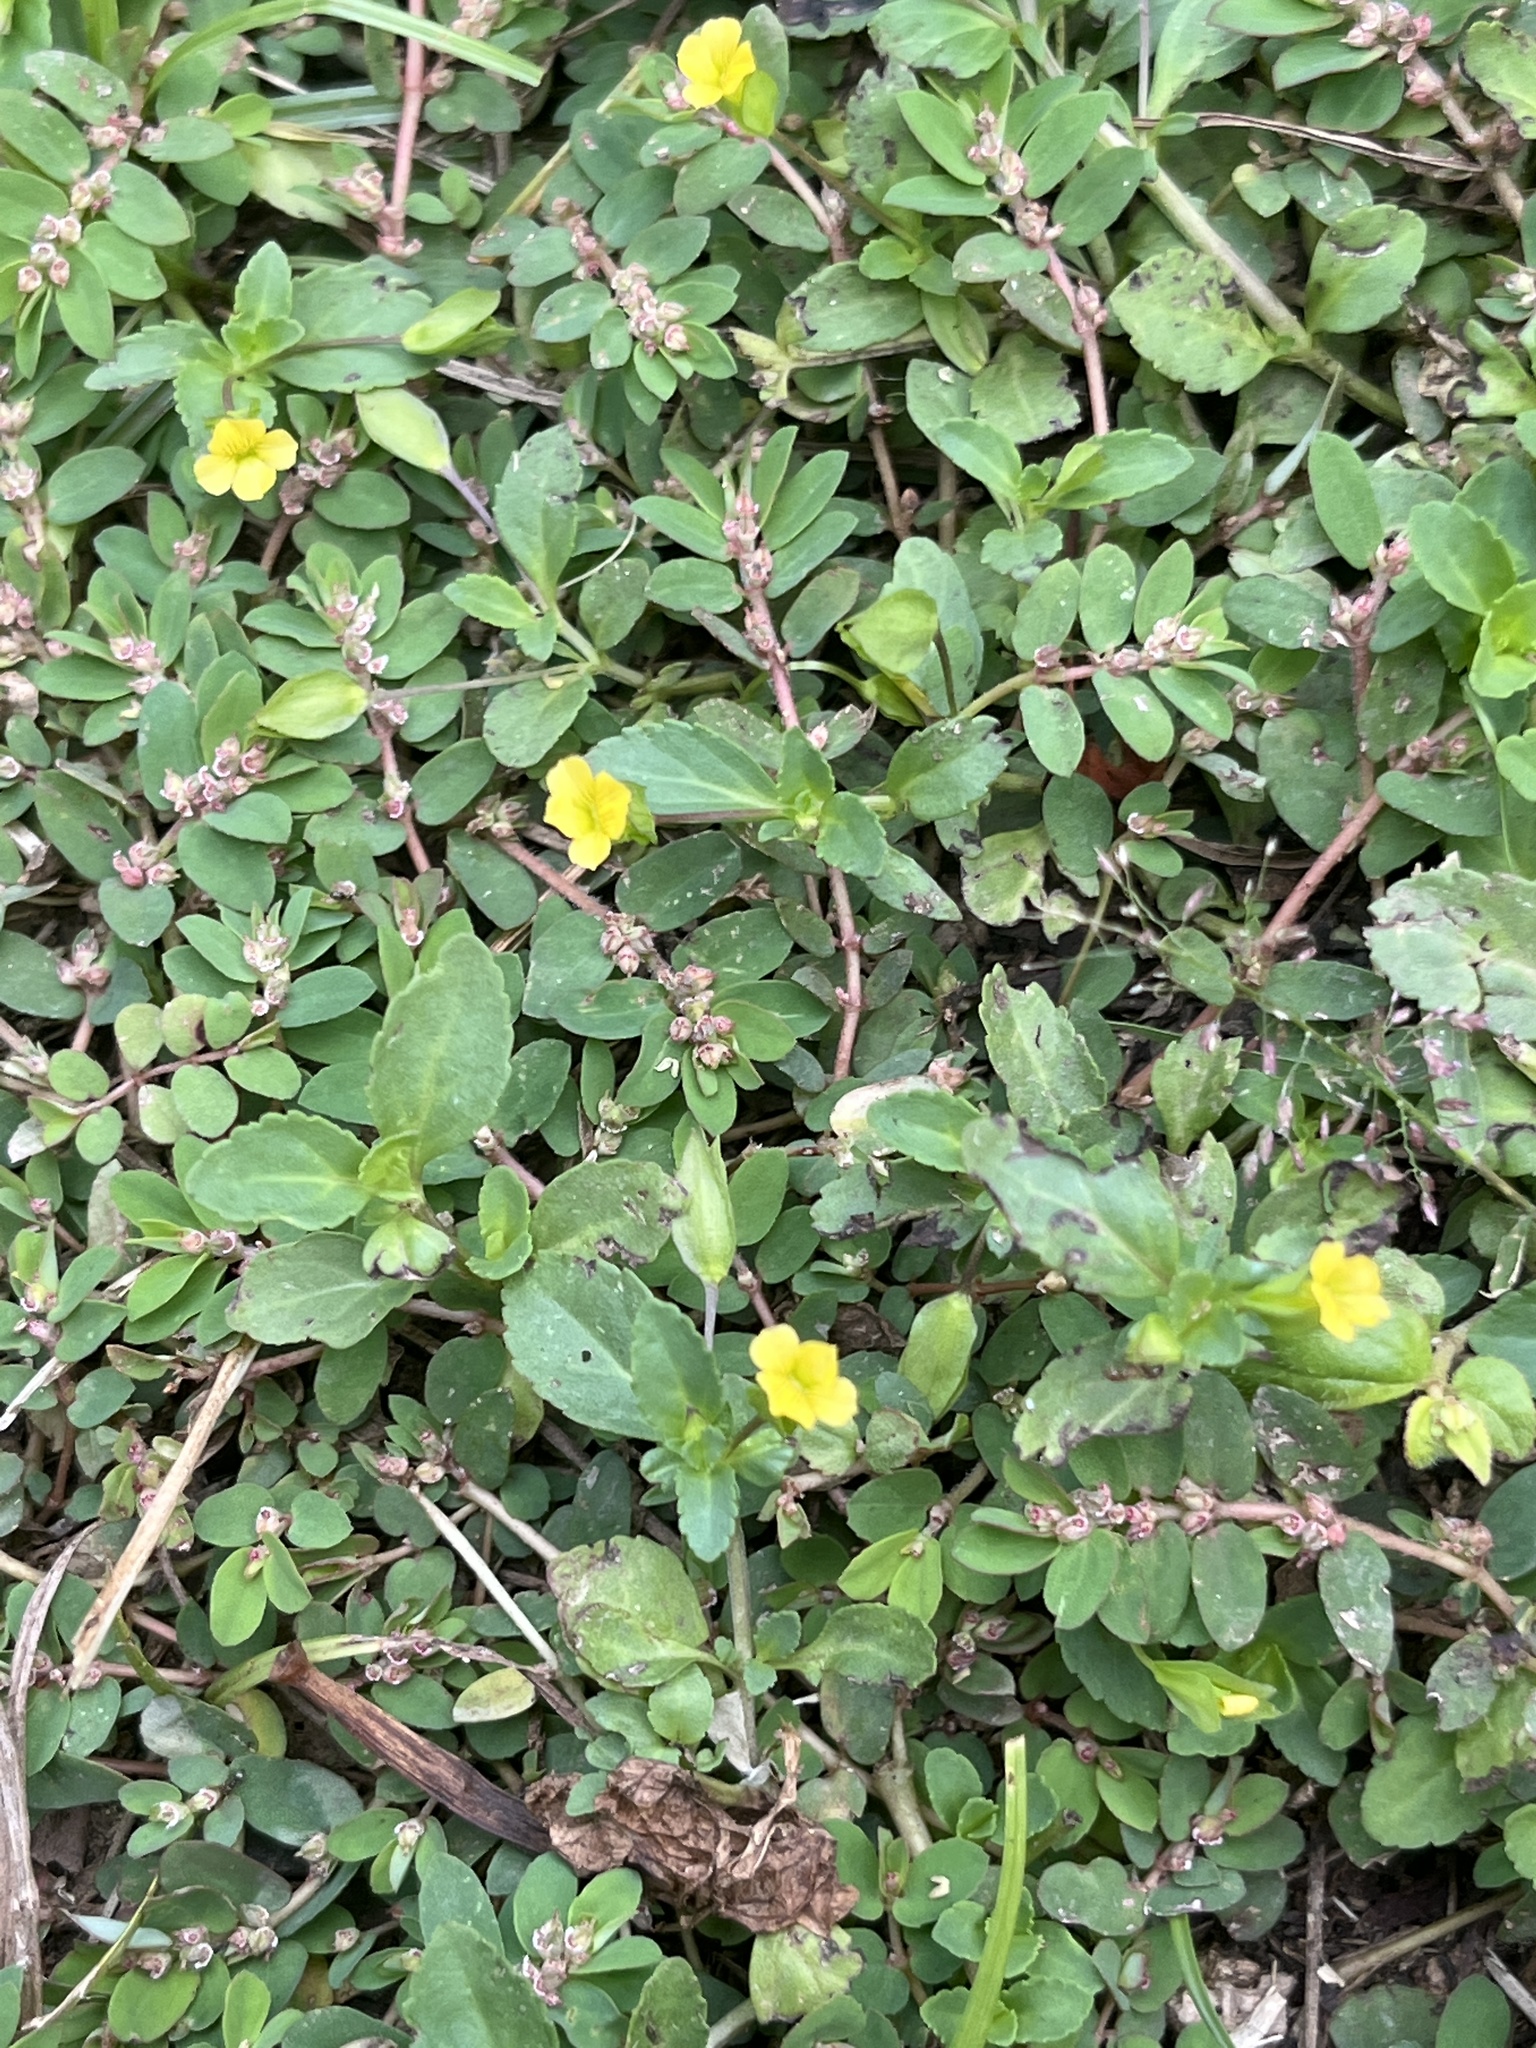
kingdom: Plantae
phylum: Tracheophyta
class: Magnoliopsida
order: Malpighiales
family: Euphorbiaceae
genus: Euphorbia
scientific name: Euphorbia thymifolia
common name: Gulf sandmat
